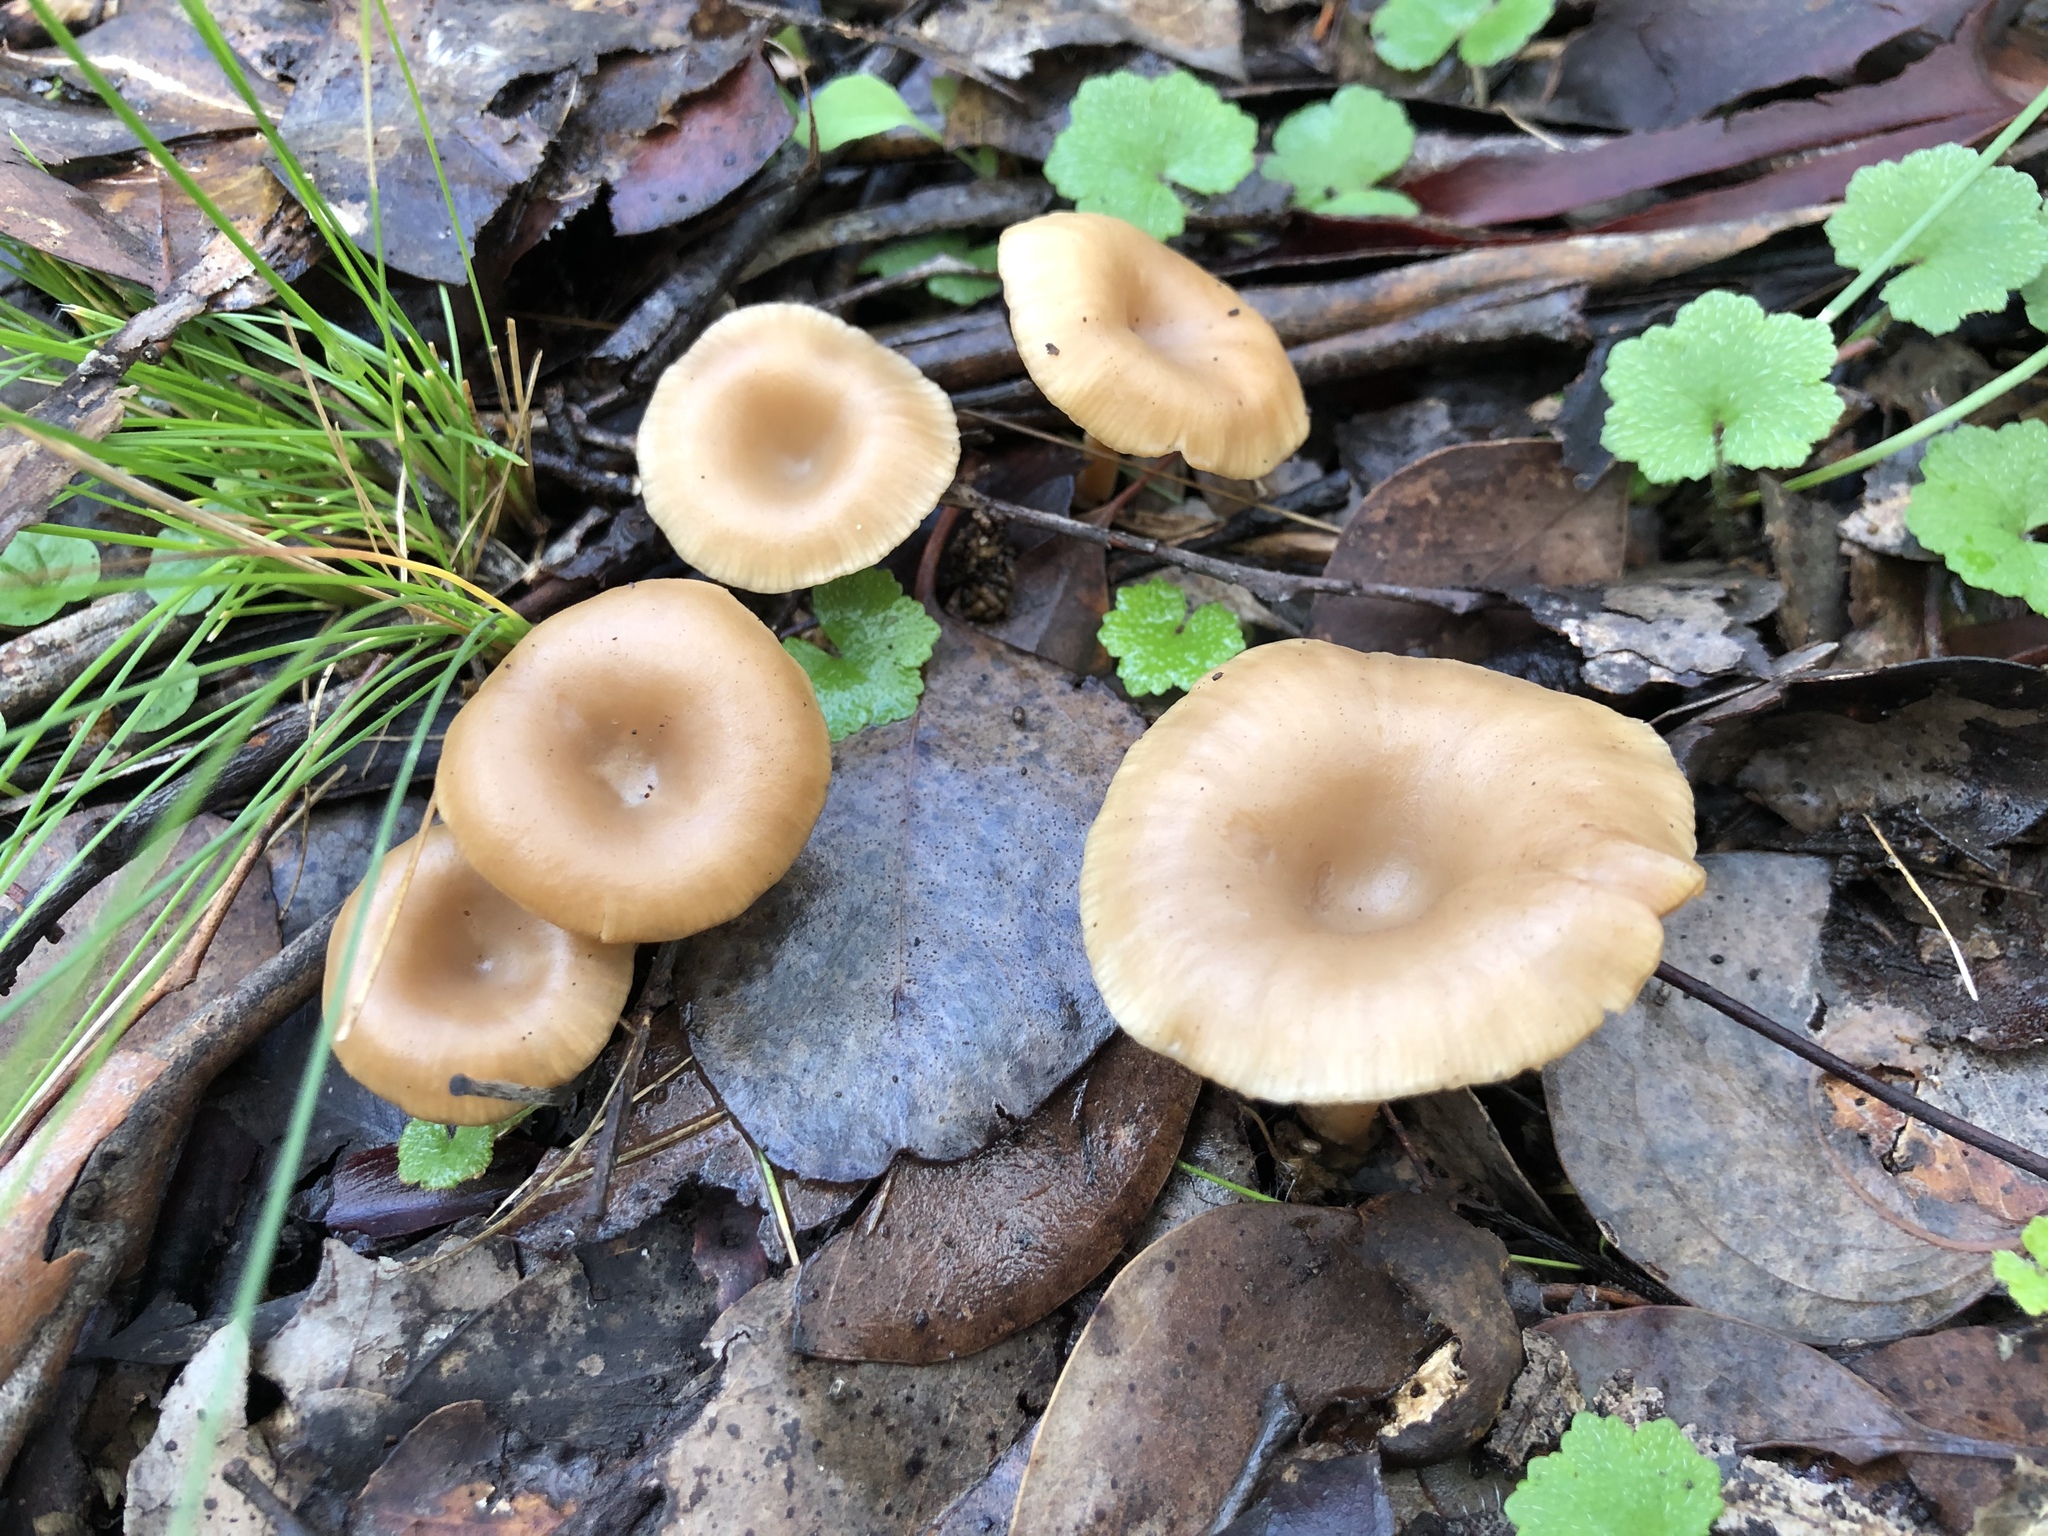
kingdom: Fungi
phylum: Basidiomycota
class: Agaricomycetes
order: Agaricales
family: Tricholomataceae
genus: Singerocybe
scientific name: Singerocybe clitocyboides
